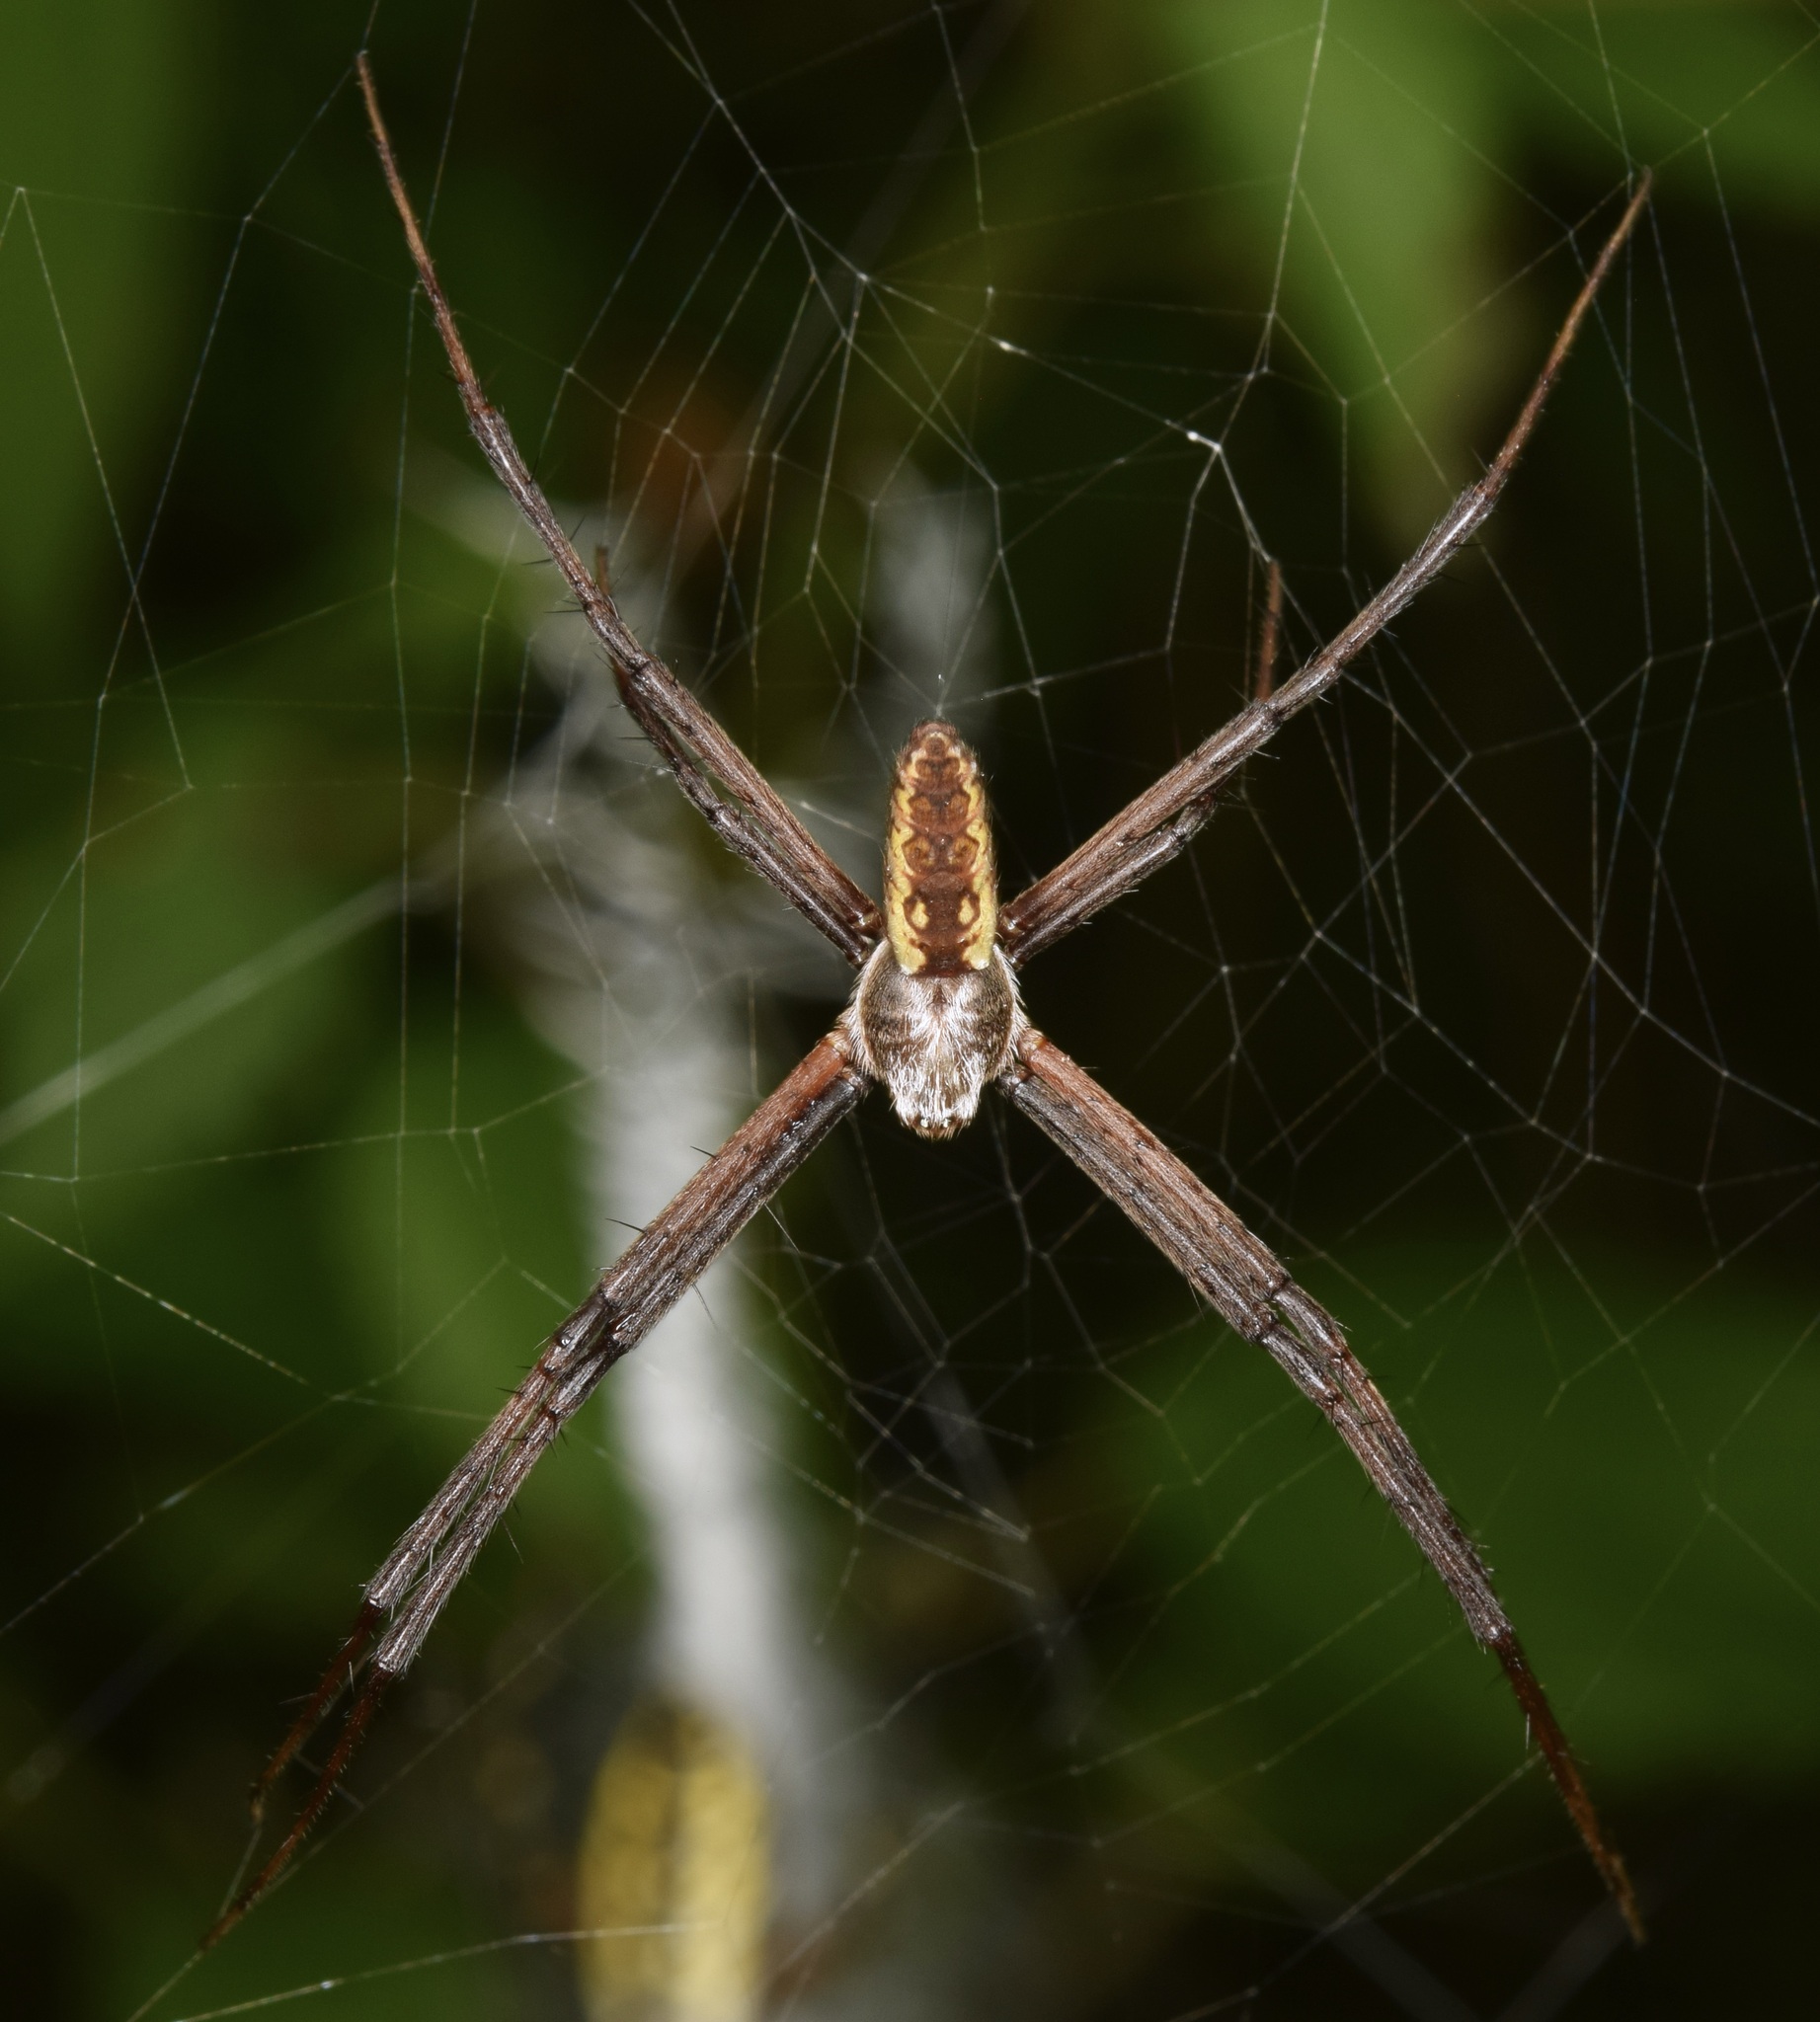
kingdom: Animalia
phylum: Arthropoda
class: Arachnida
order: Araneae
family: Araneidae
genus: Argiope
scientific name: Argiope aurantia
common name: Orb weavers
